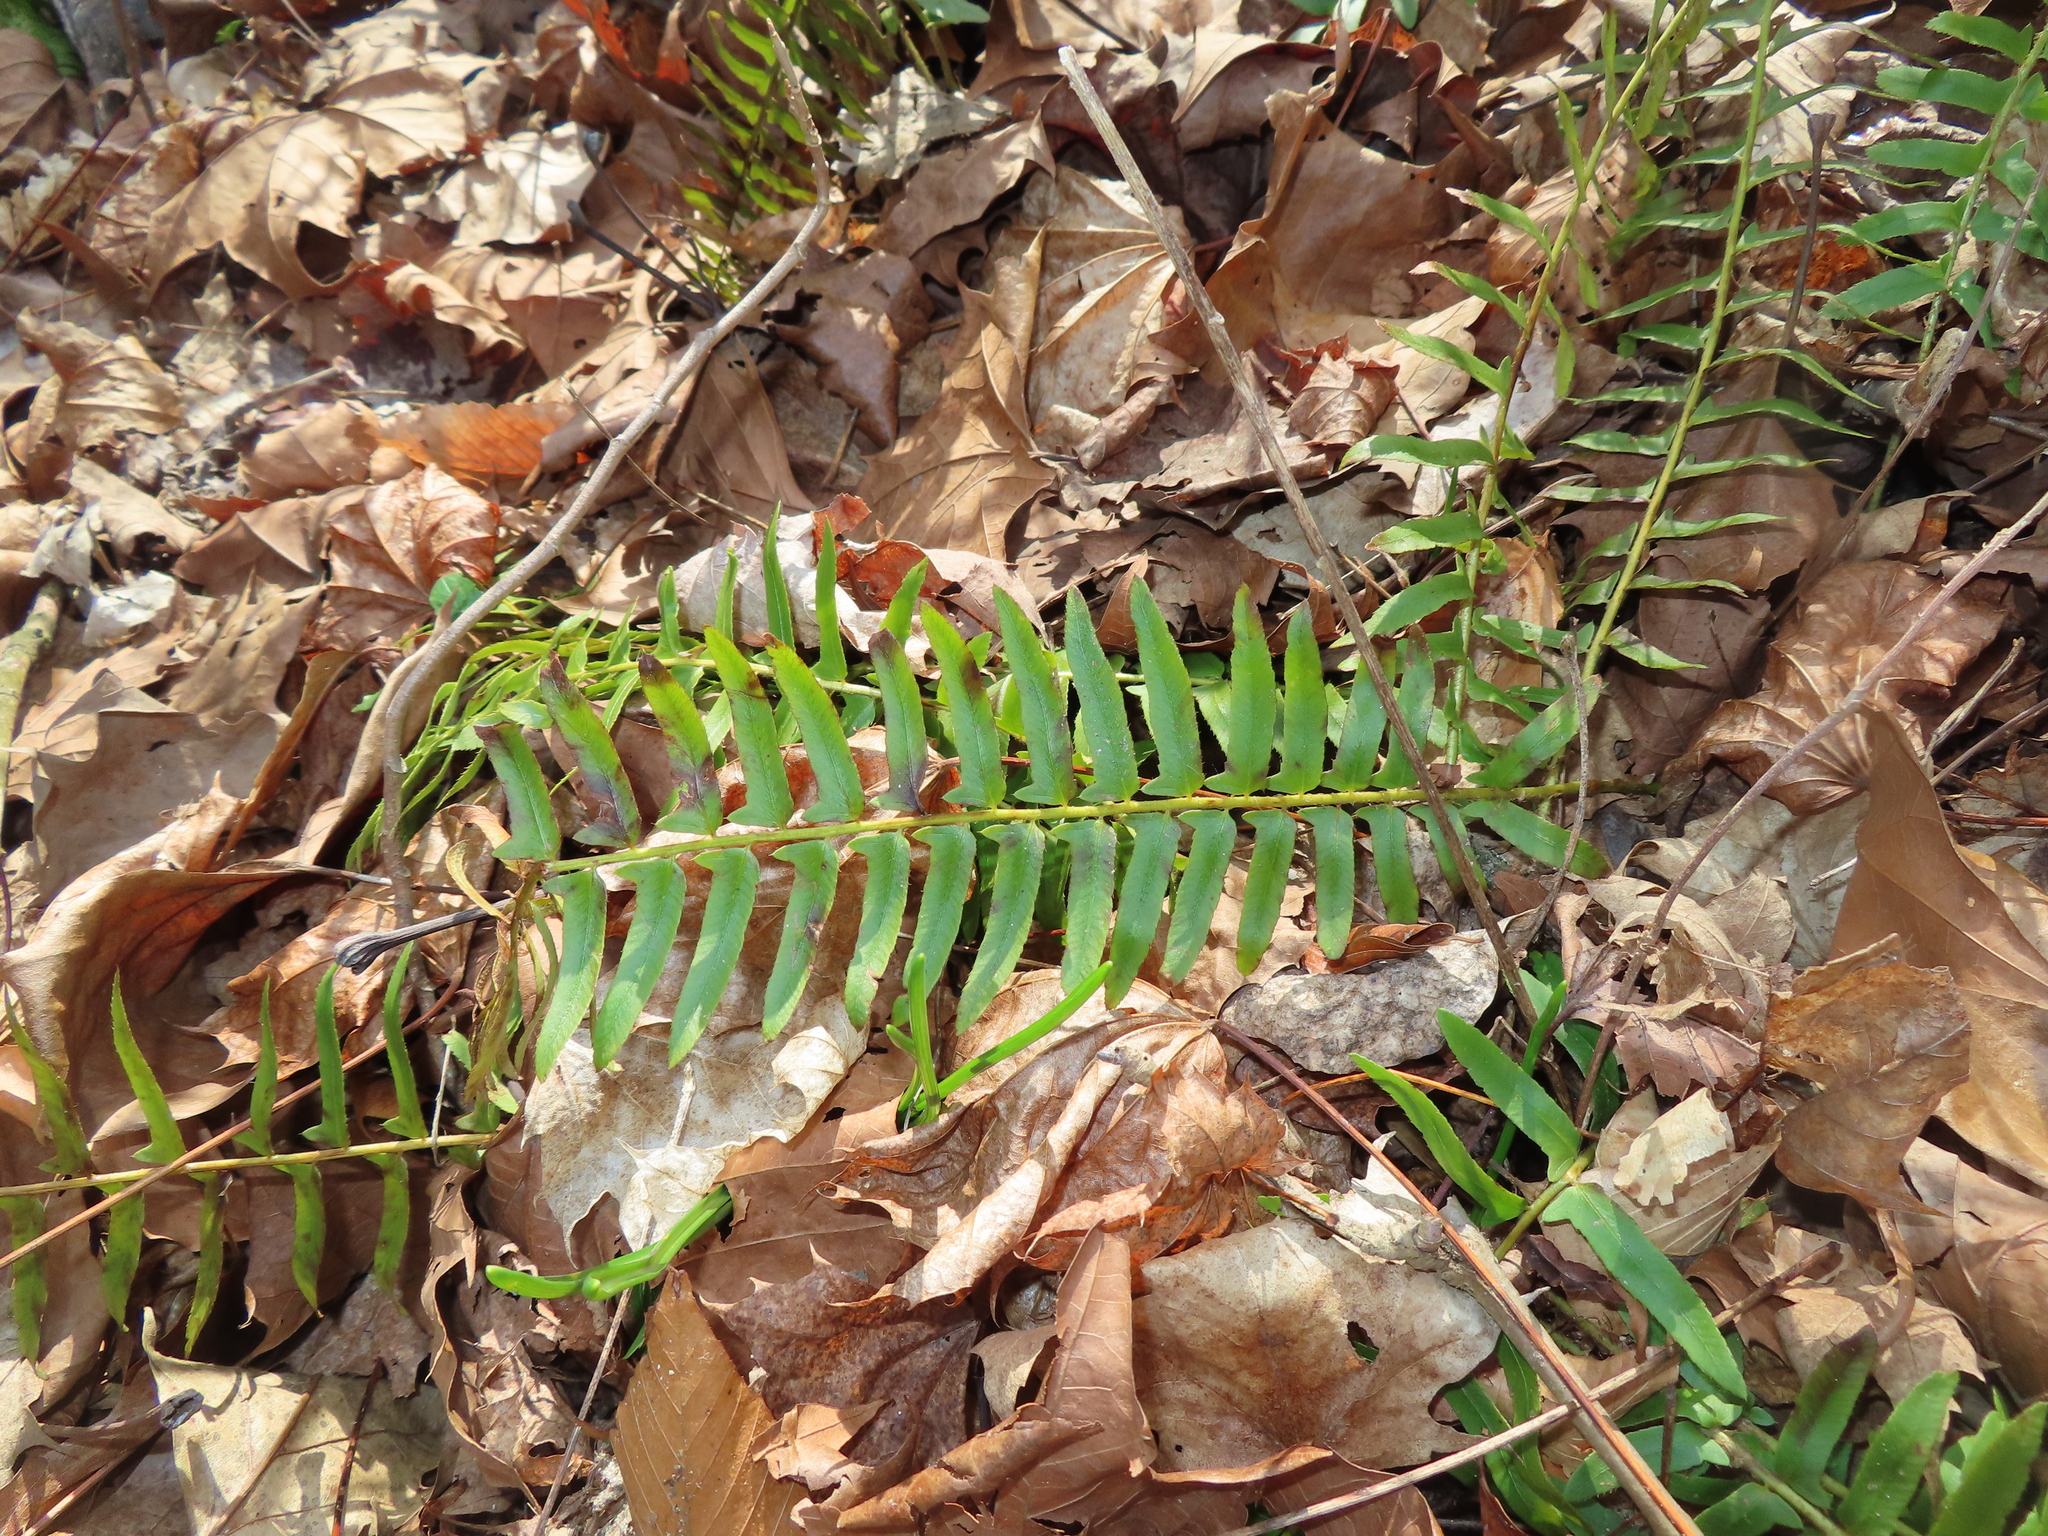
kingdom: Plantae
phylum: Tracheophyta
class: Polypodiopsida
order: Polypodiales
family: Dryopteridaceae
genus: Polystichum
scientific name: Polystichum acrostichoides
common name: Christmas fern
